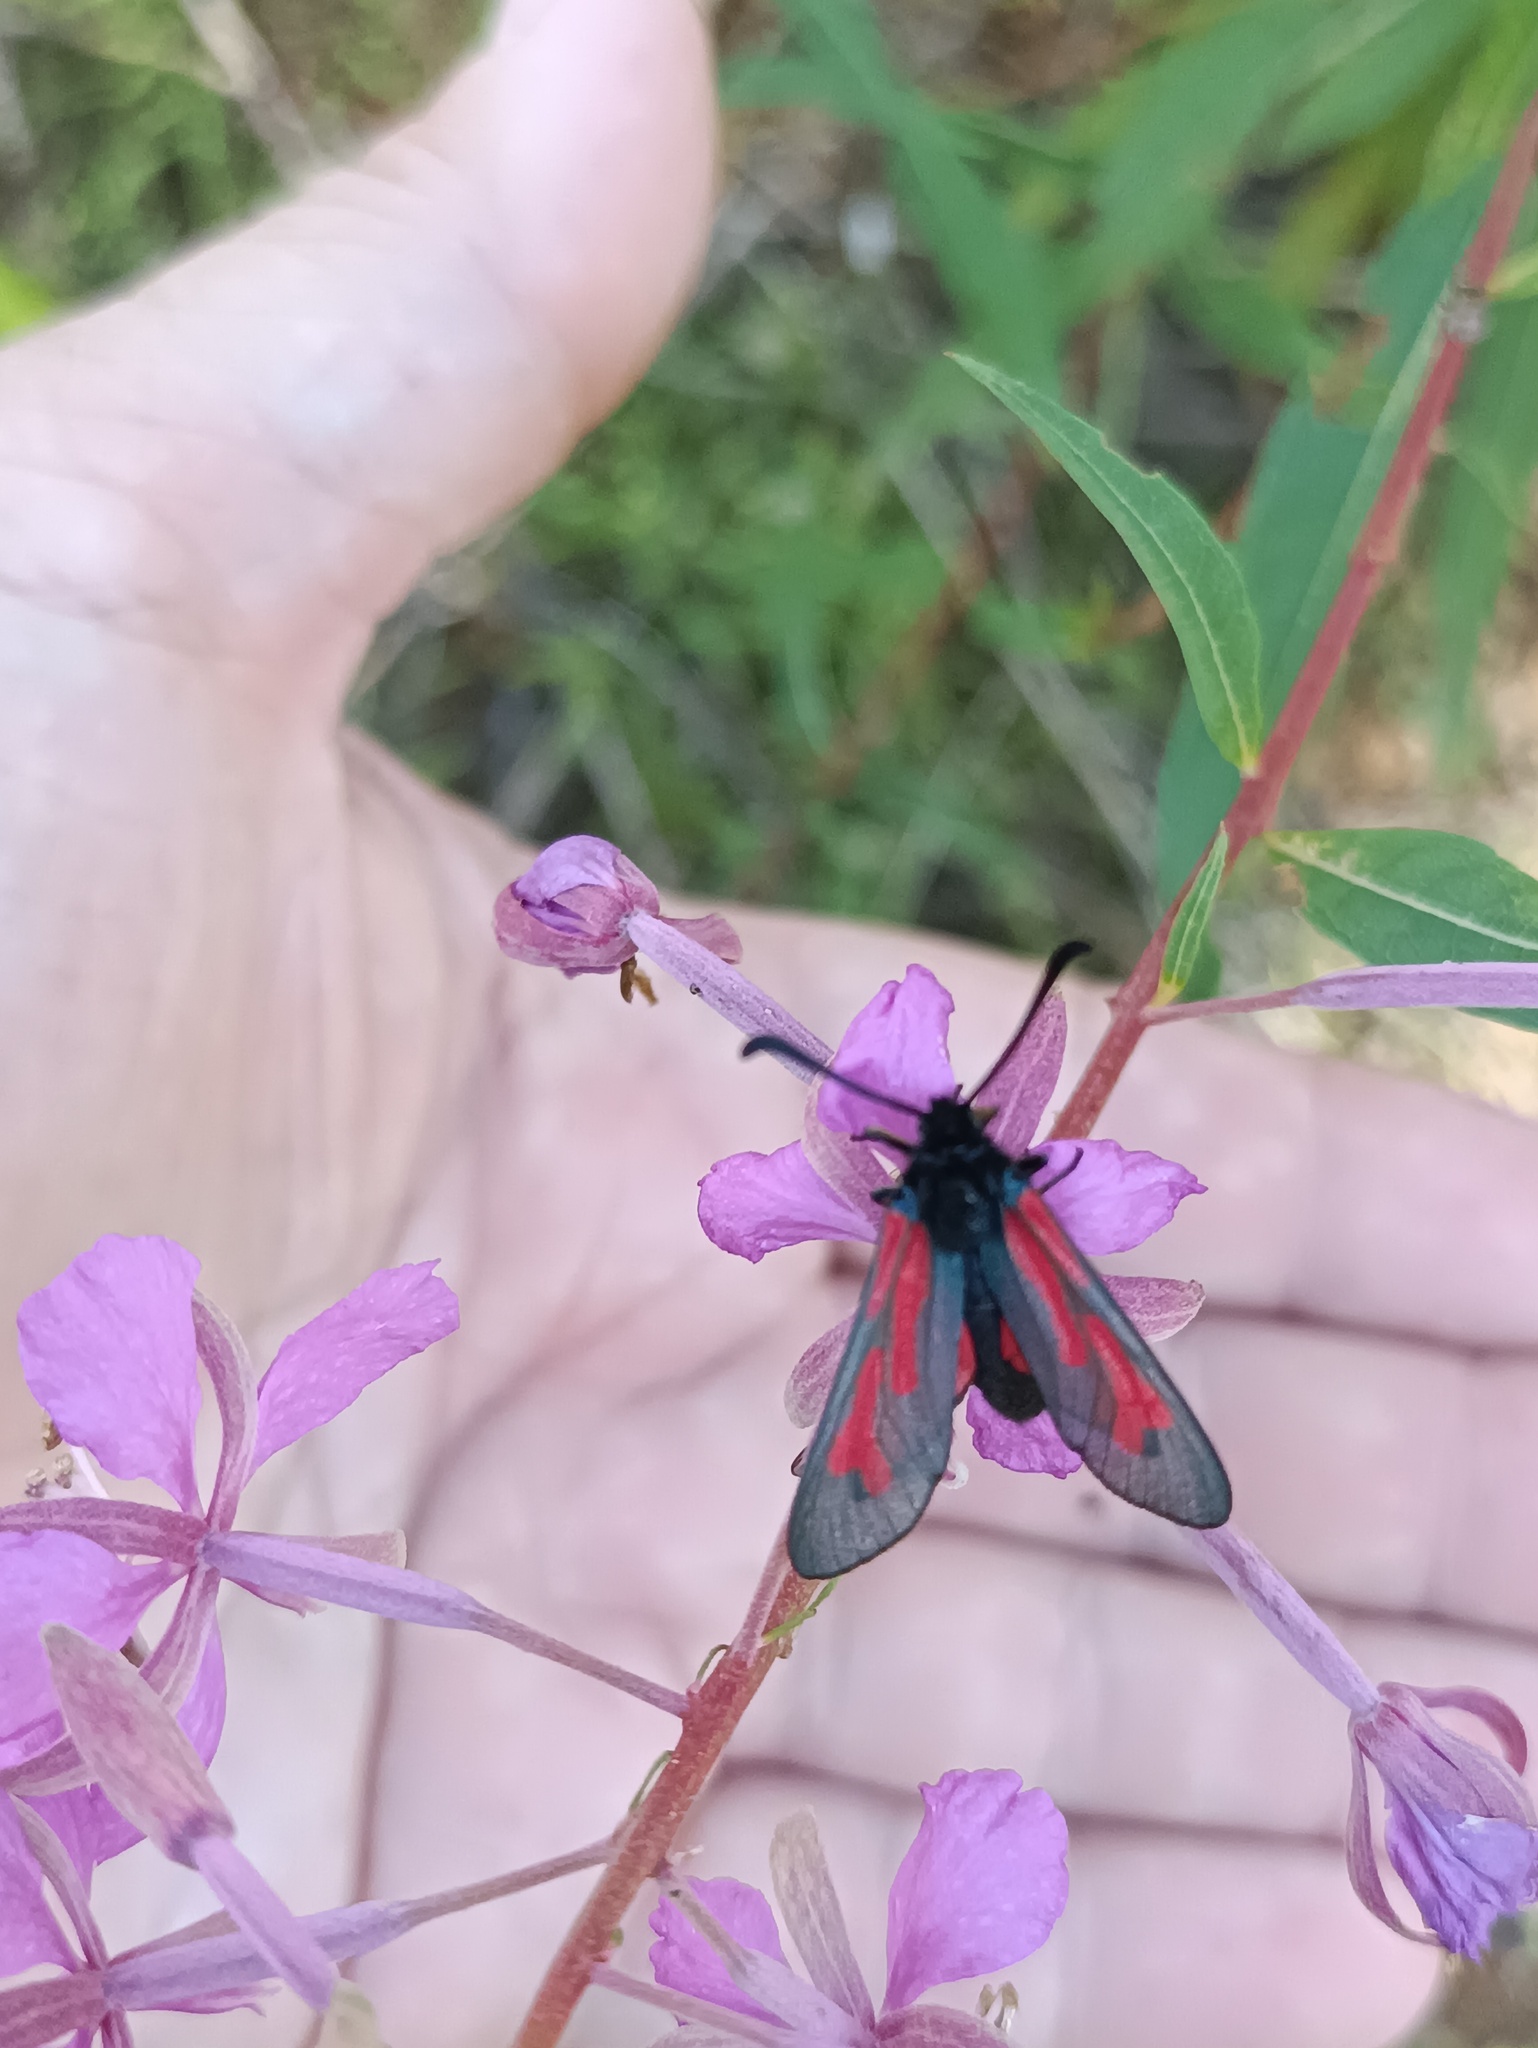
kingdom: Animalia
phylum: Arthropoda
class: Insecta
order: Lepidoptera
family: Zygaenidae
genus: Zygaena
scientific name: Zygaena minos
